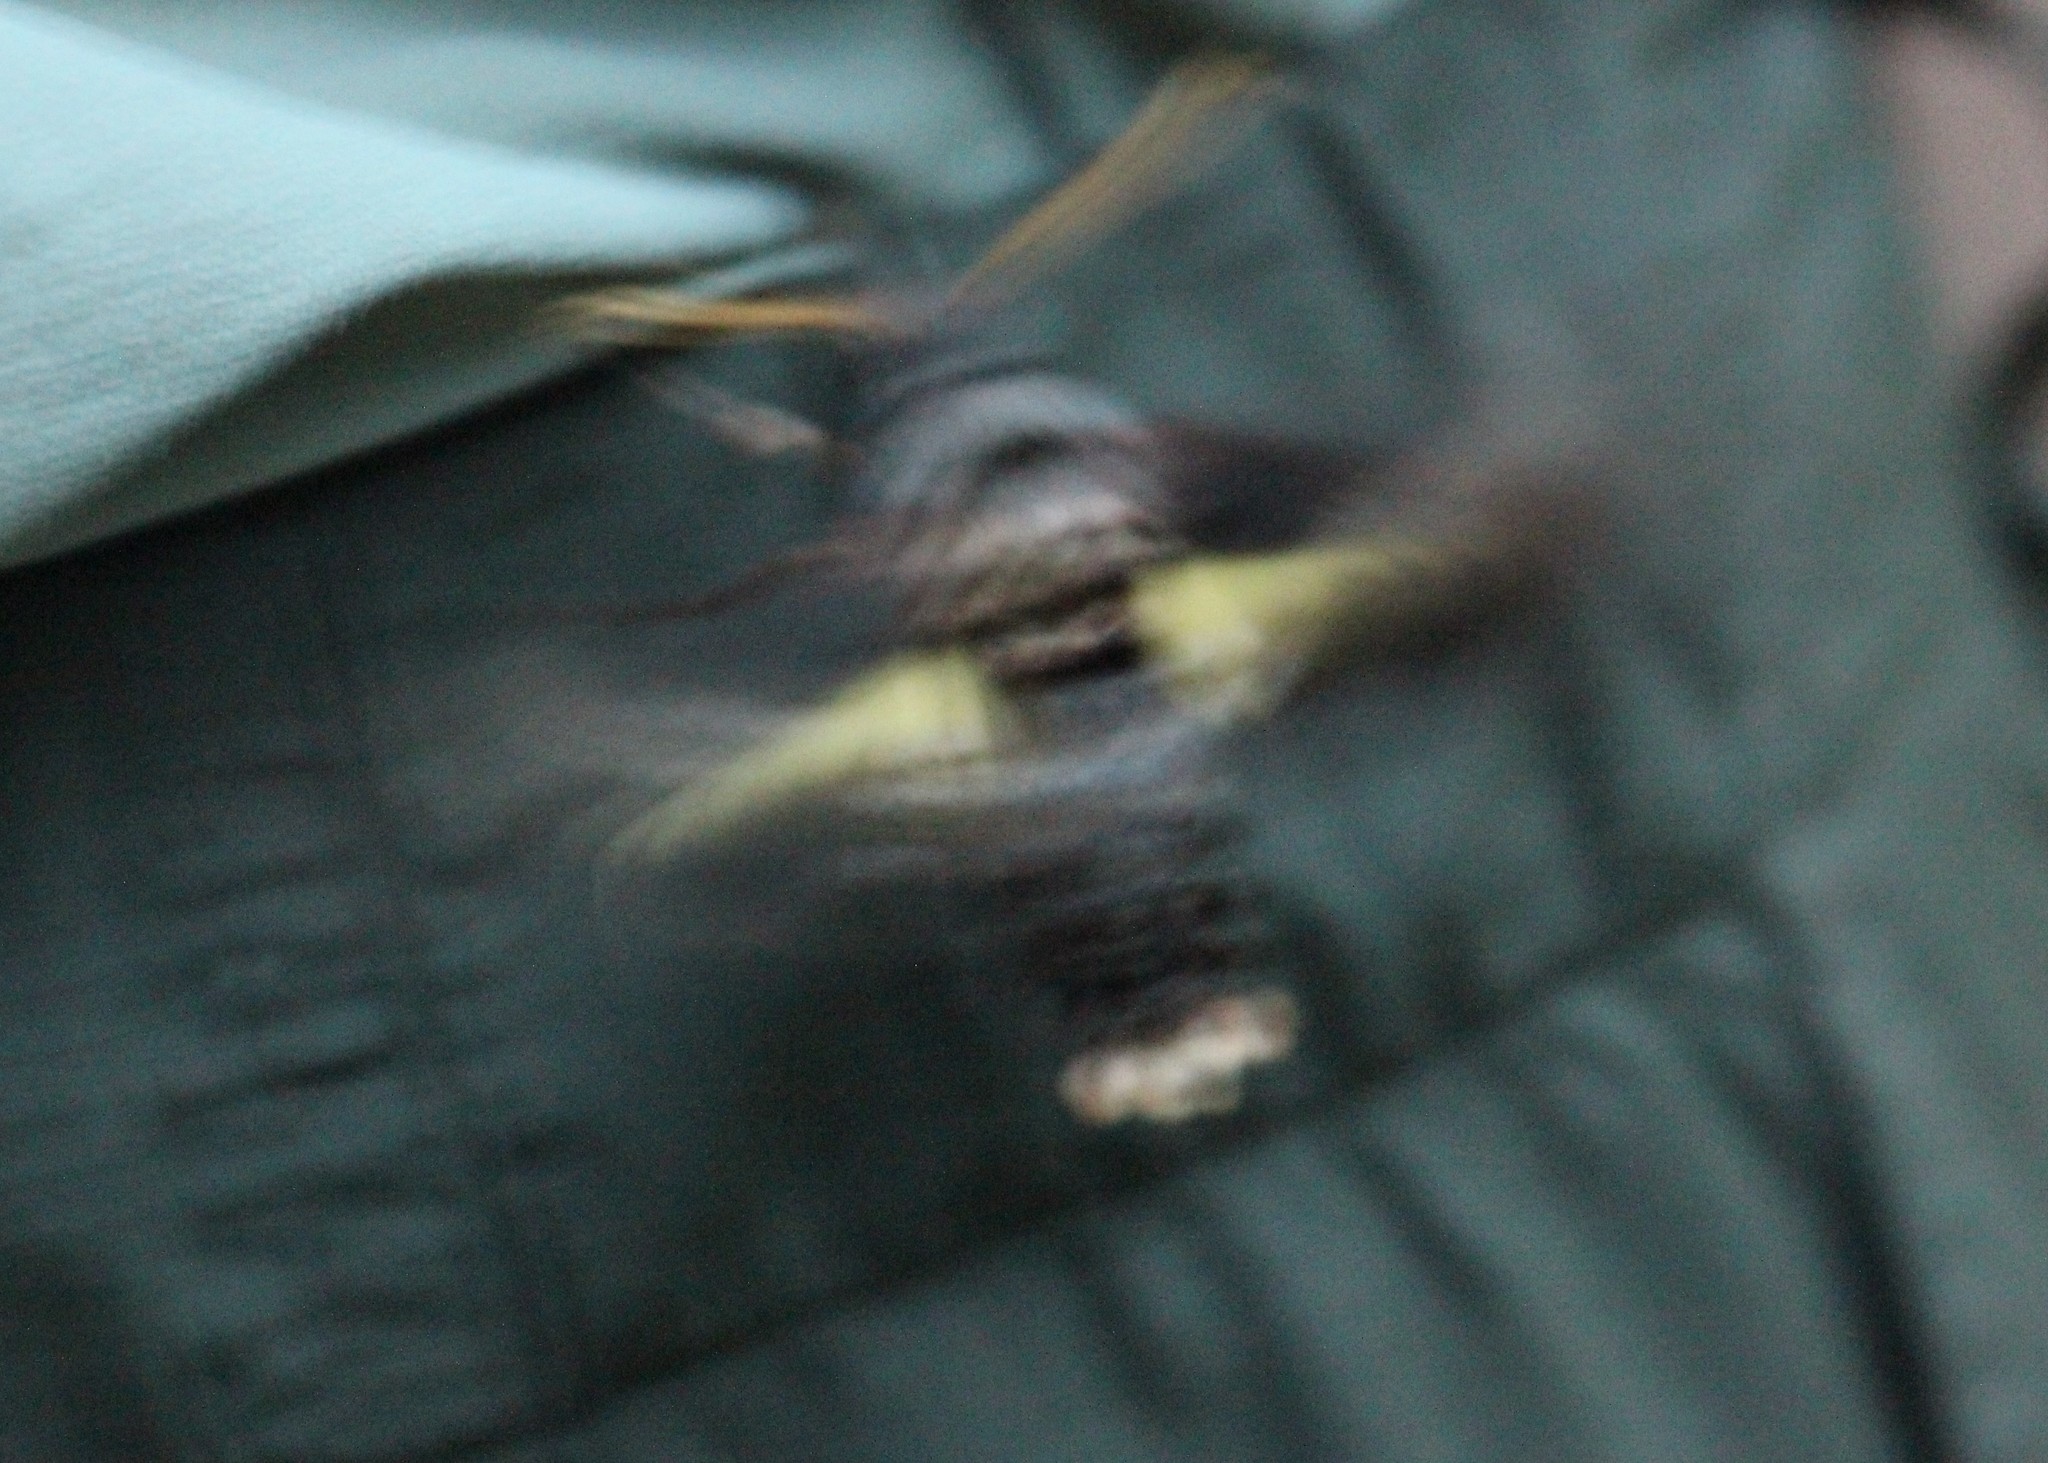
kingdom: Animalia
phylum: Arthropoda
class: Insecta
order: Lepidoptera
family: Sphingidae
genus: Sphecodina
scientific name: Sphecodina abbottii
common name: Abbott's sphinx
